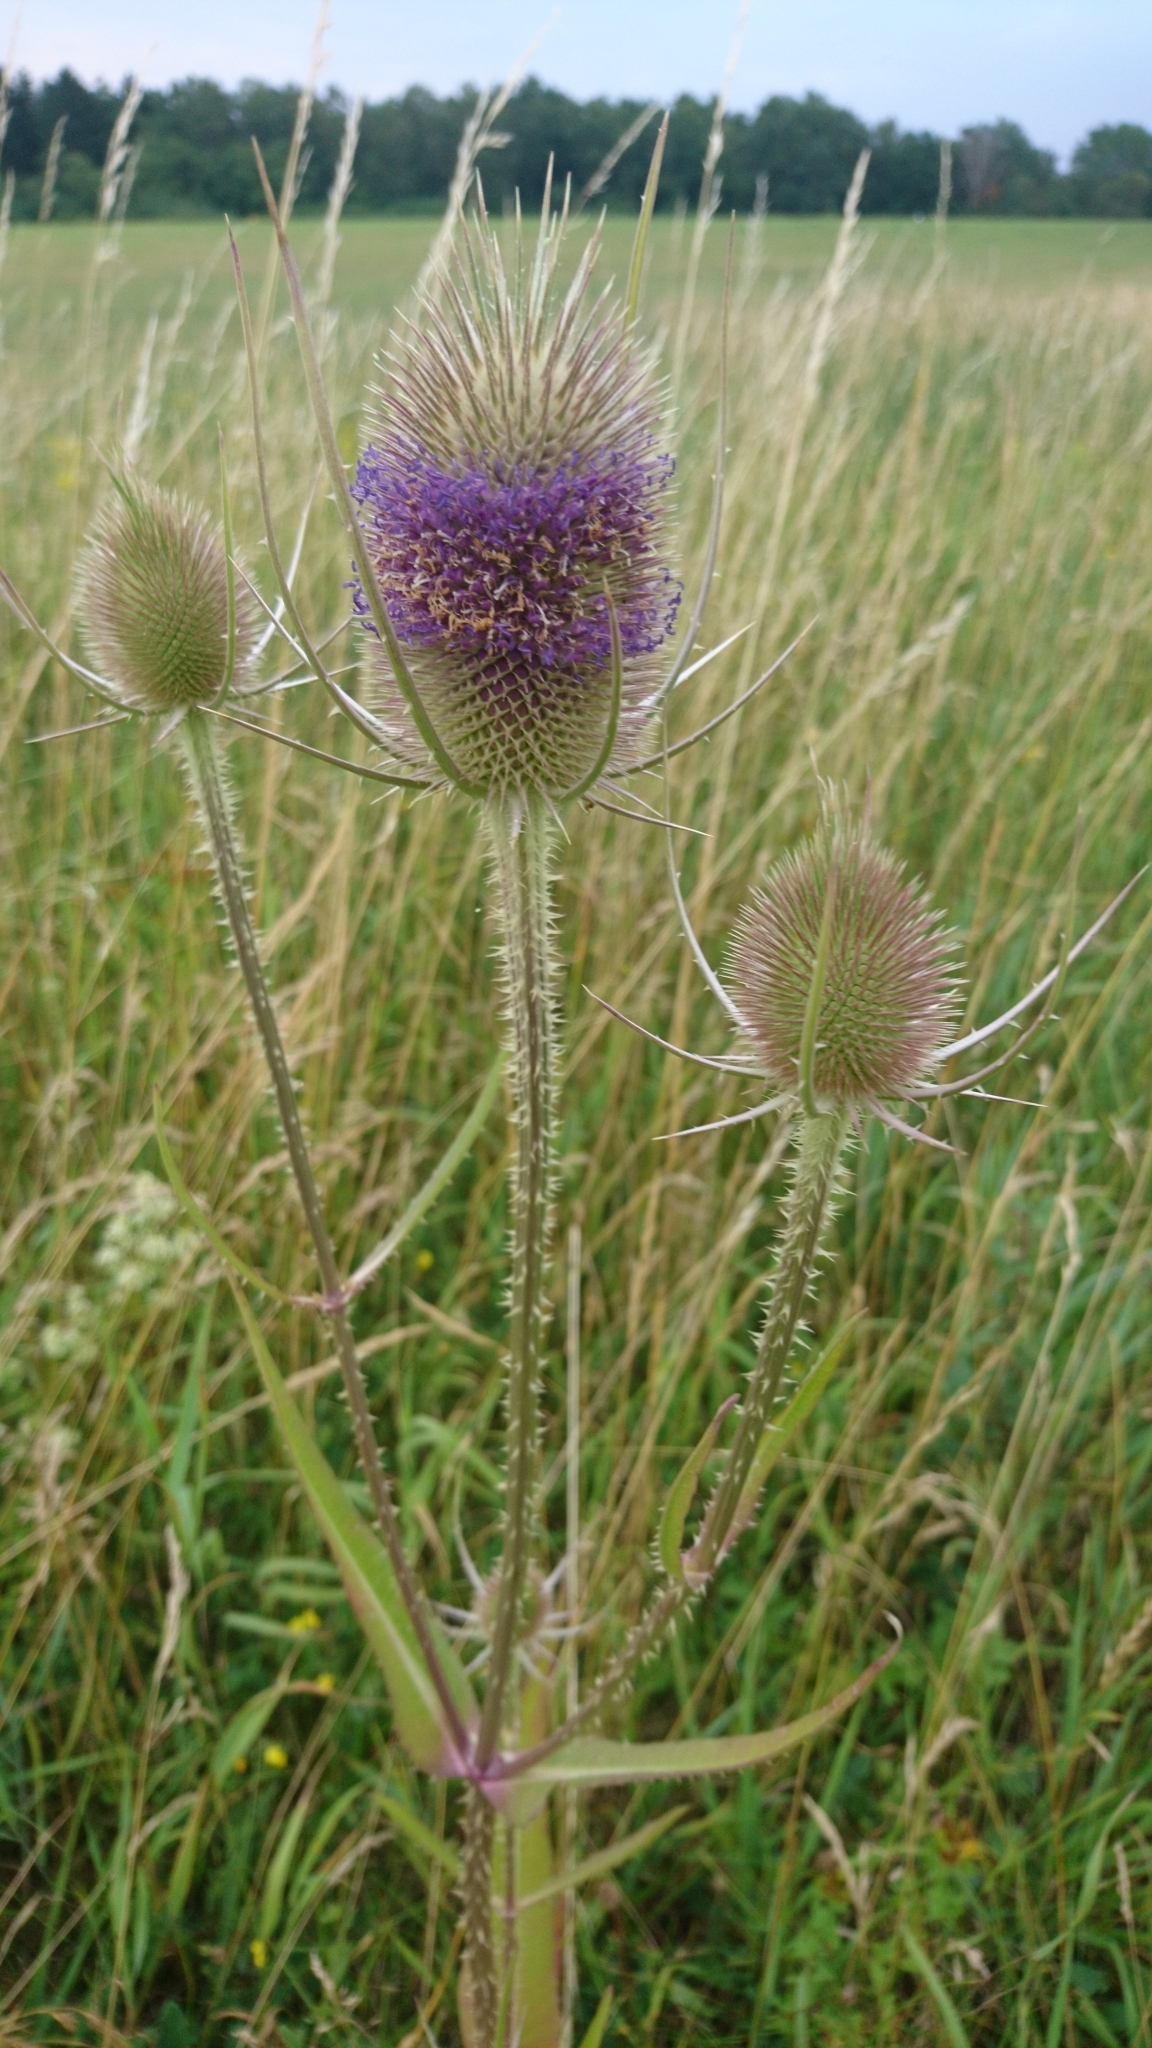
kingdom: Plantae
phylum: Tracheophyta
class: Magnoliopsida
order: Dipsacales
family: Caprifoliaceae
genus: Dipsacus
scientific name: Dipsacus fullonum
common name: Teasel
